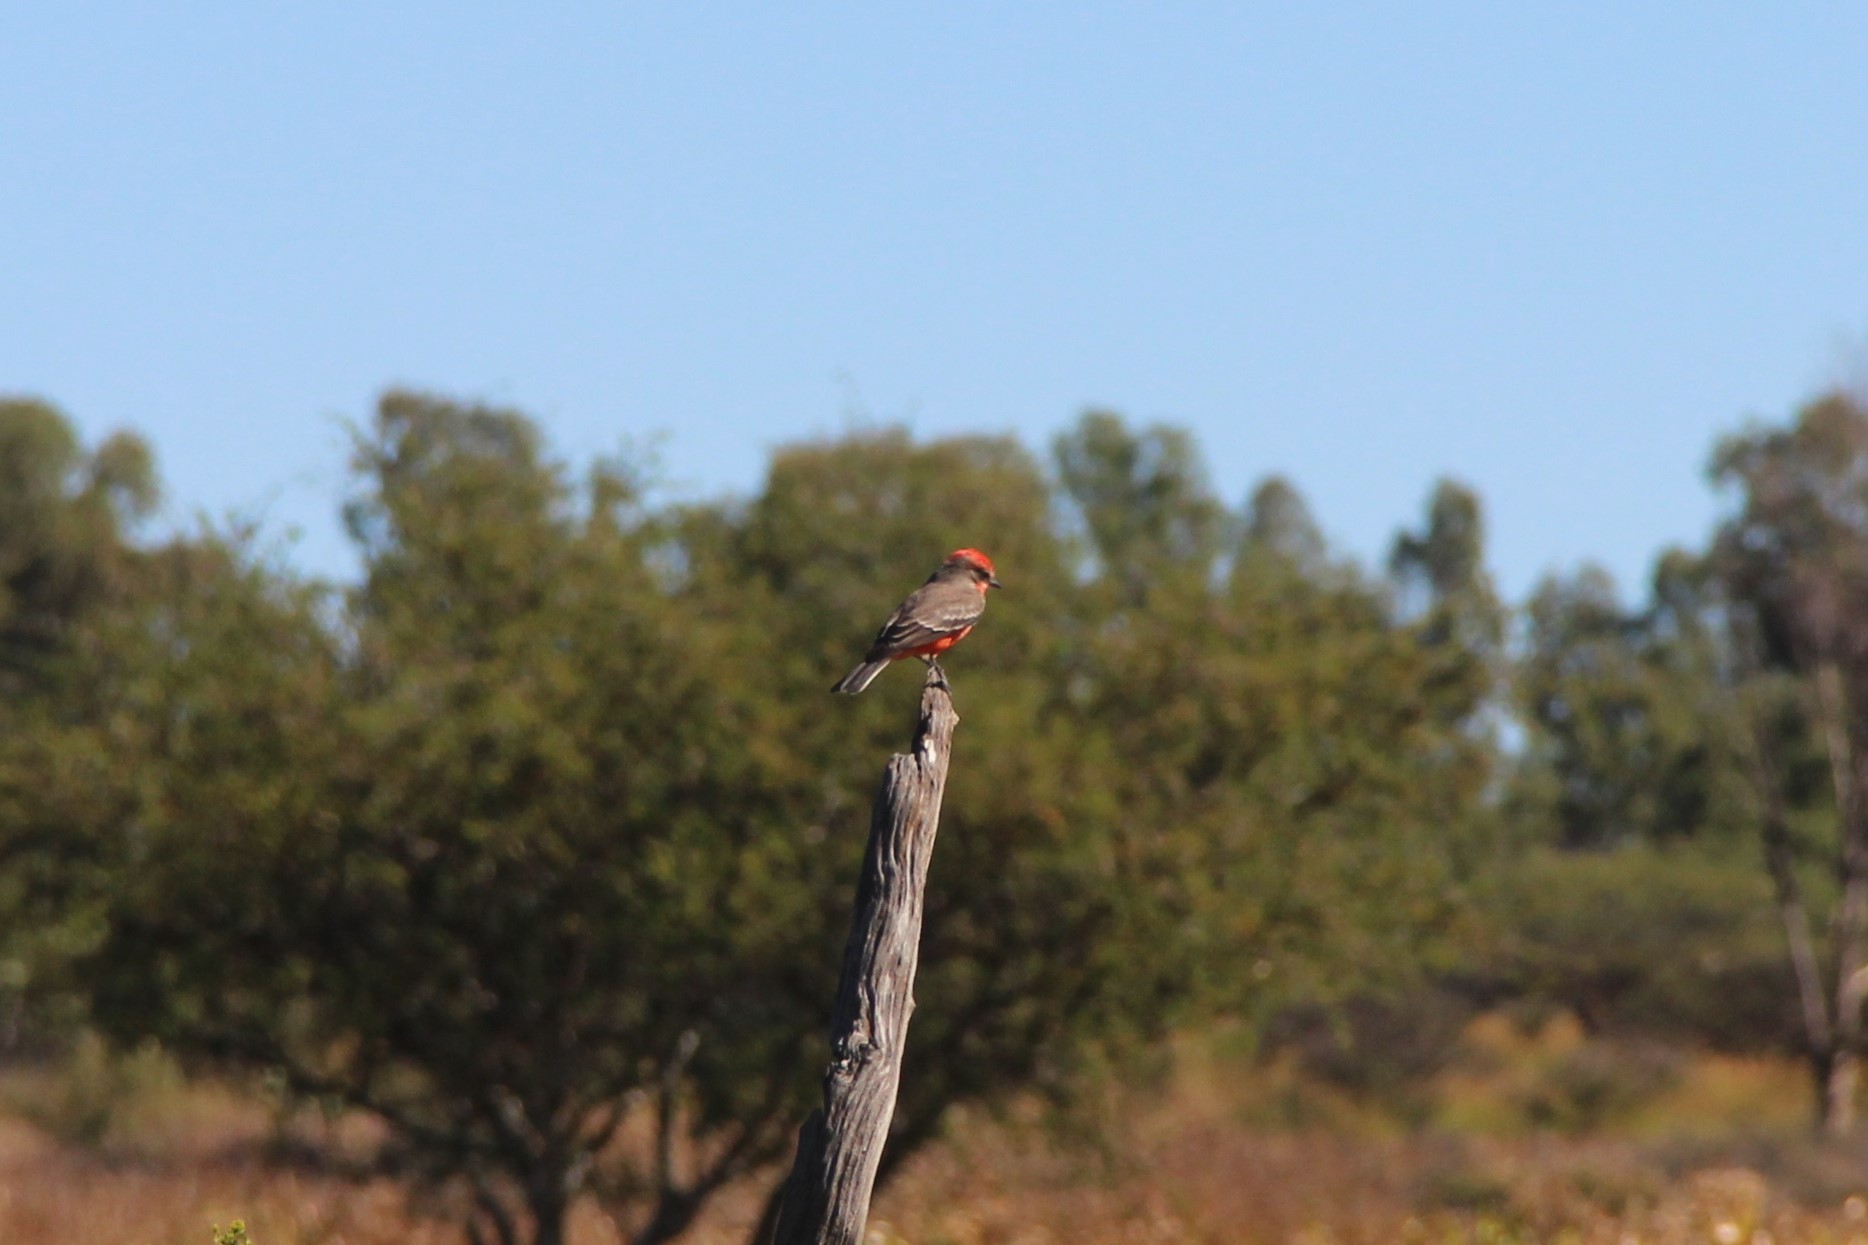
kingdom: Animalia
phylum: Chordata
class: Aves
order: Passeriformes
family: Tyrannidae
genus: Pyrocephalus
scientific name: Pyrocephalus rubinus
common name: Vermilion flycatcher
